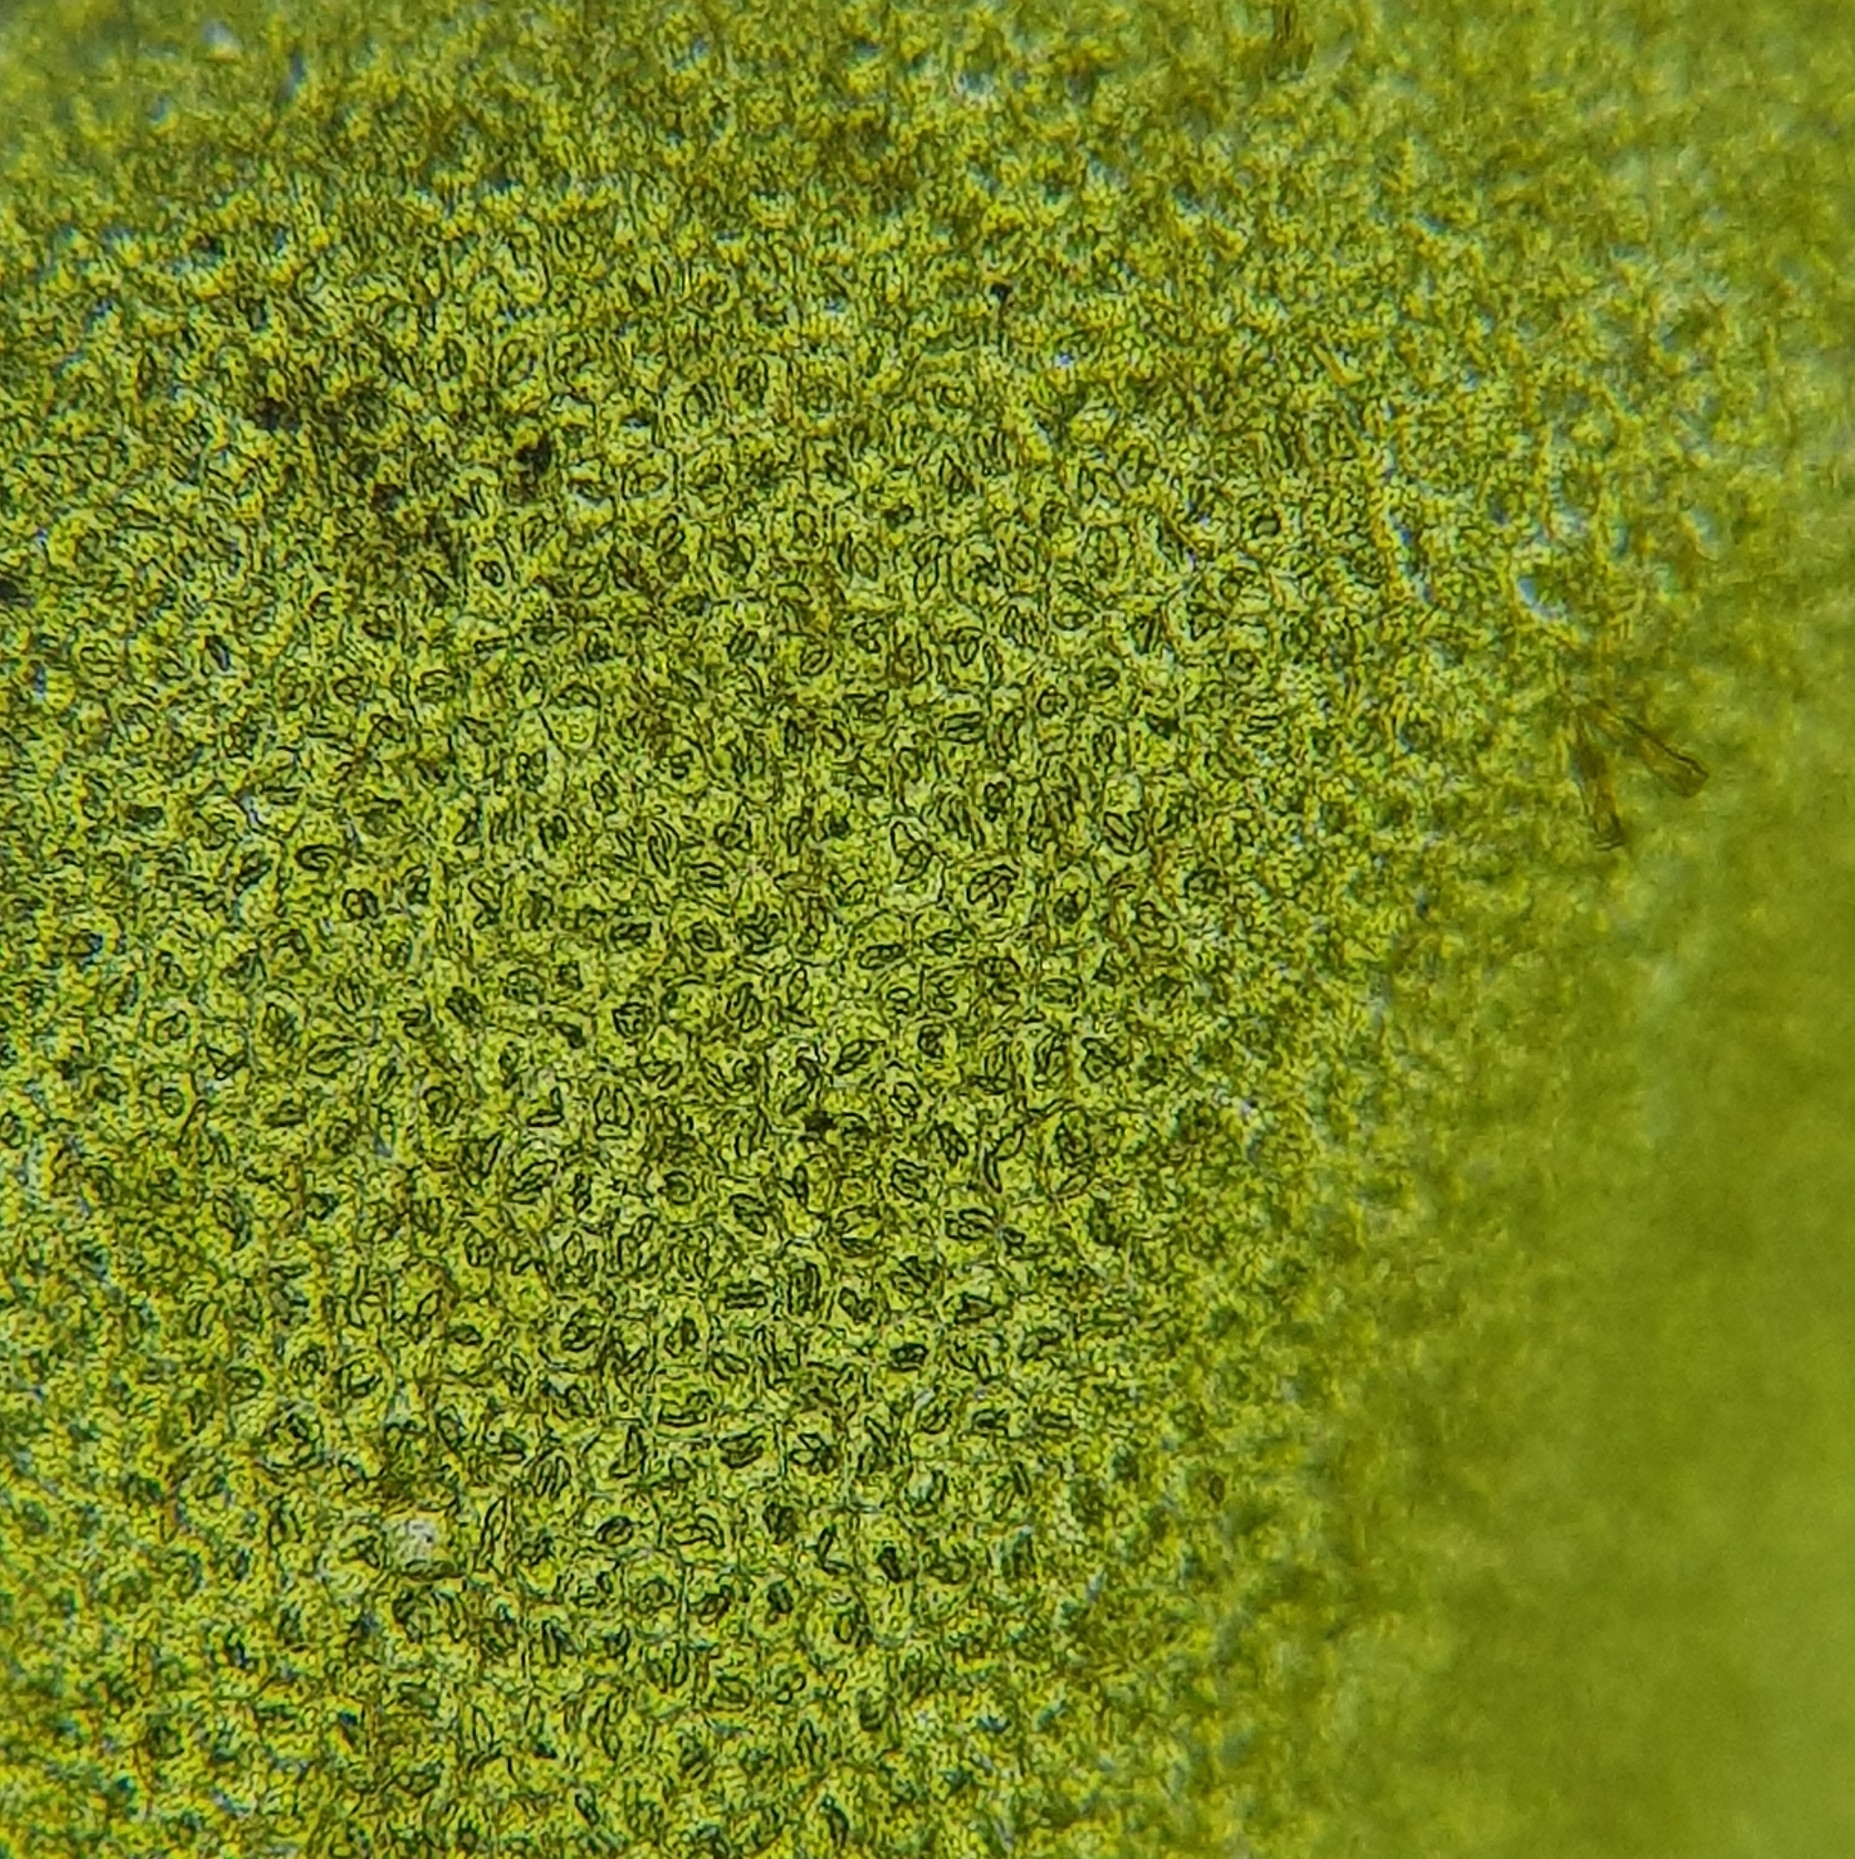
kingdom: Plantae
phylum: Marchantiophyta
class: Jungermanniopsida
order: Jungermanniales
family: Lophocoleaceae
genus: Chiloscyphus
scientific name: Chiloscyphus polyanthos
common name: Square-leaved crestwort
